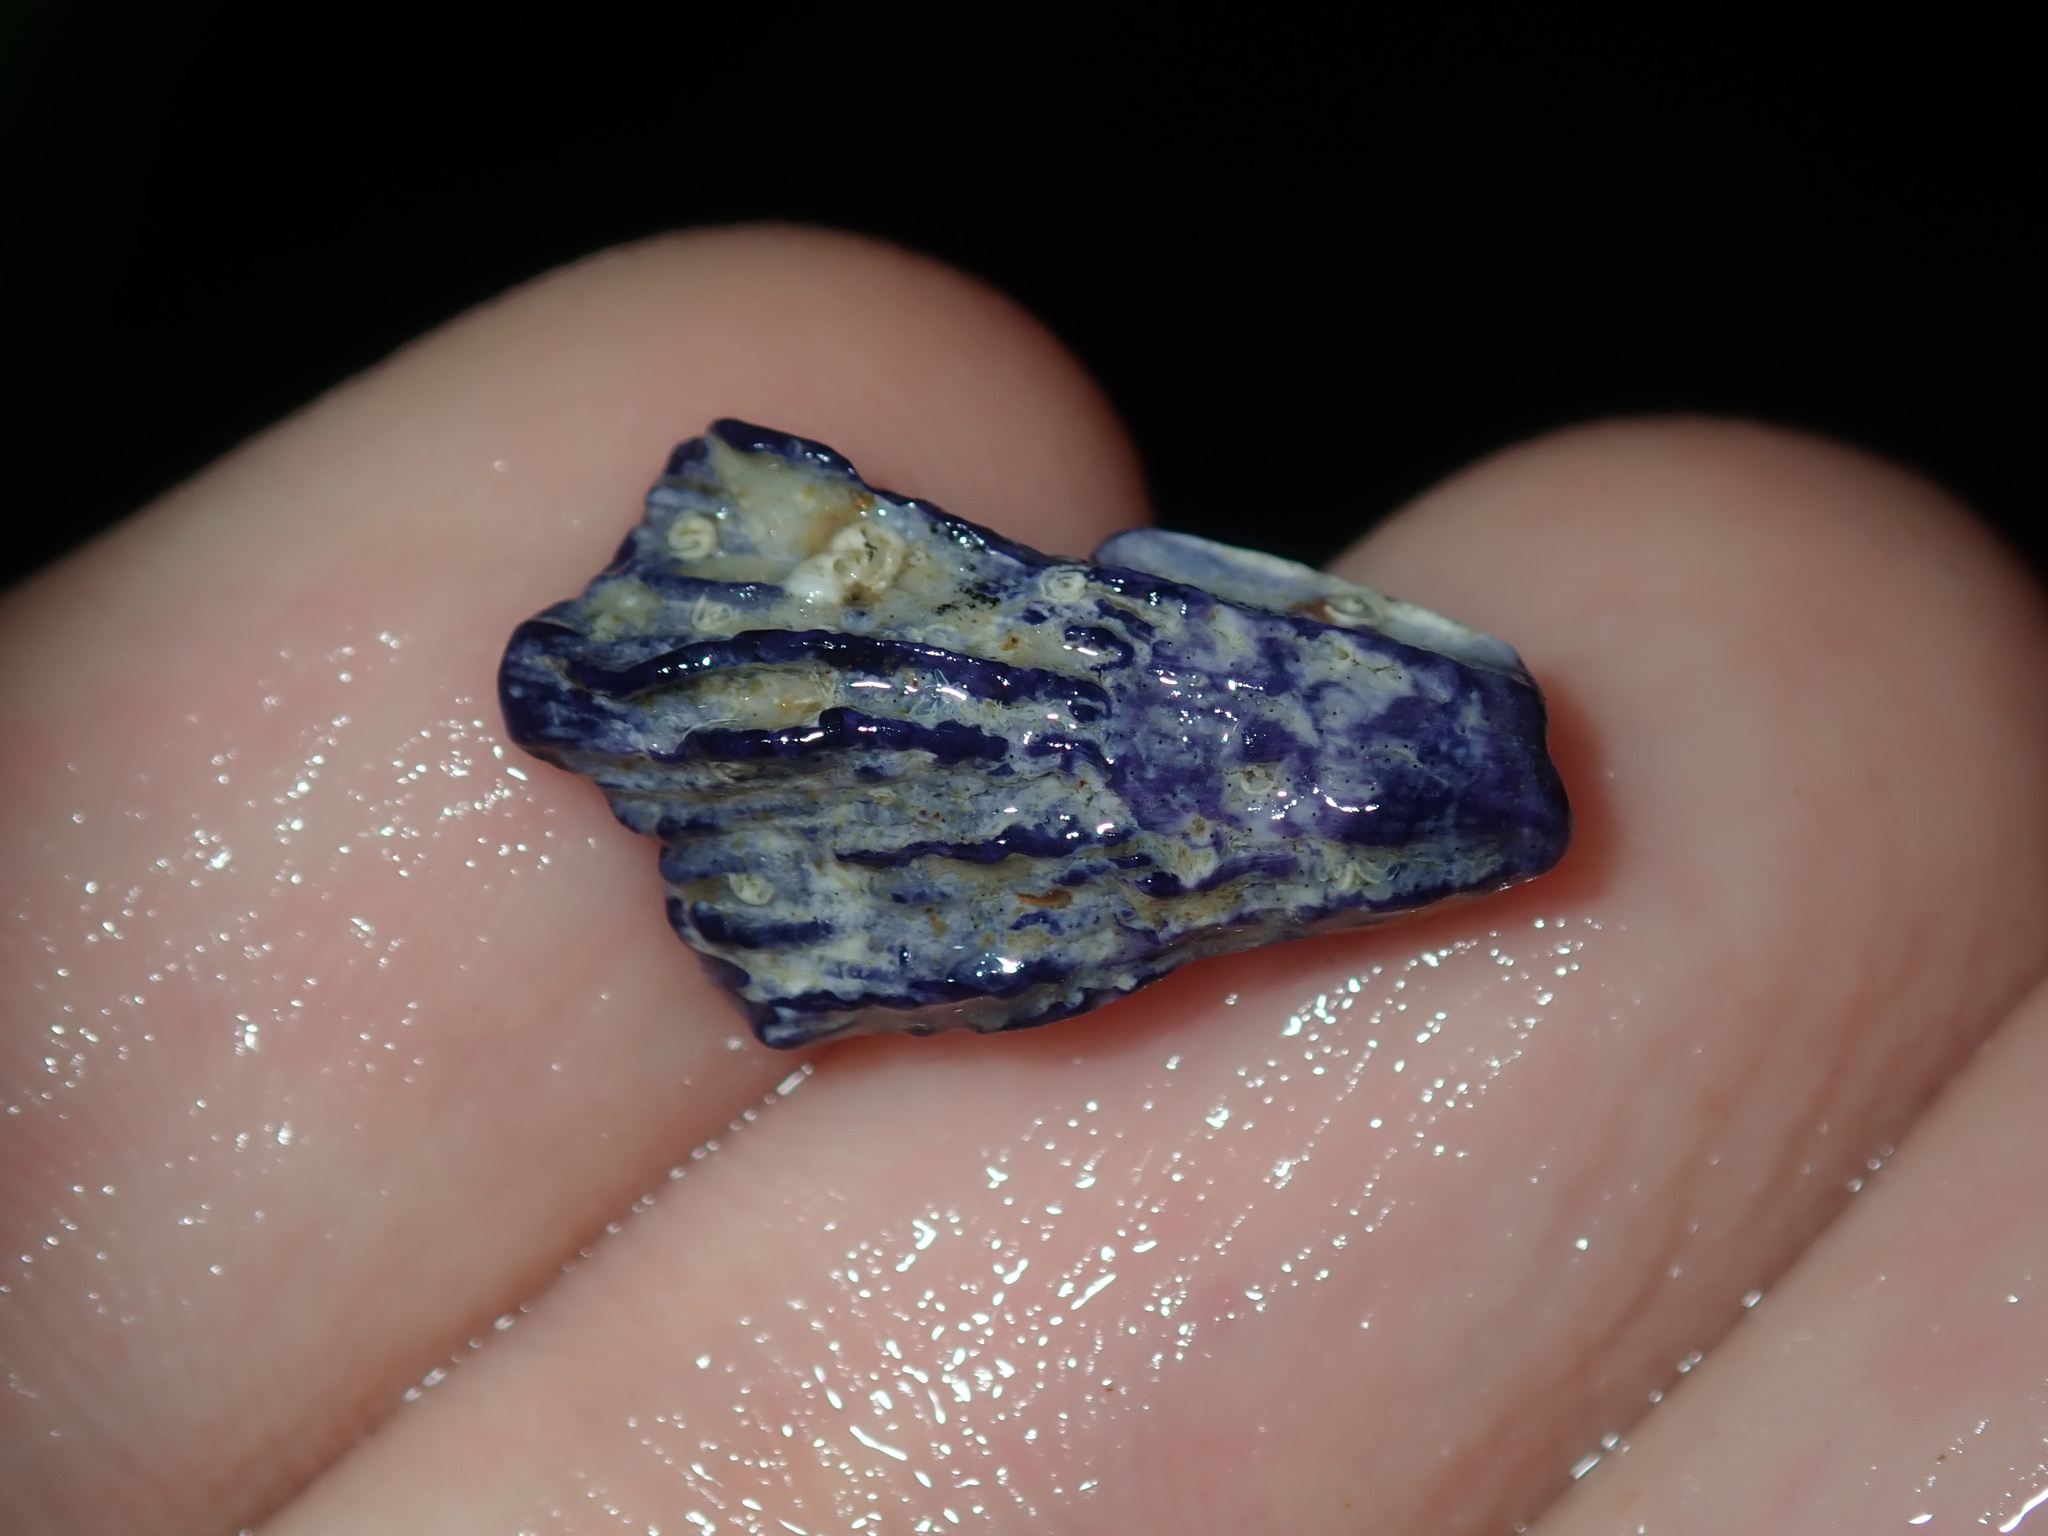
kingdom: Animalia
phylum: Arthropoda
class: Maxillopoda
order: Sessilia
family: Austrobalanidae
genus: Austrobalanus
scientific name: Austrobalanus imperator
